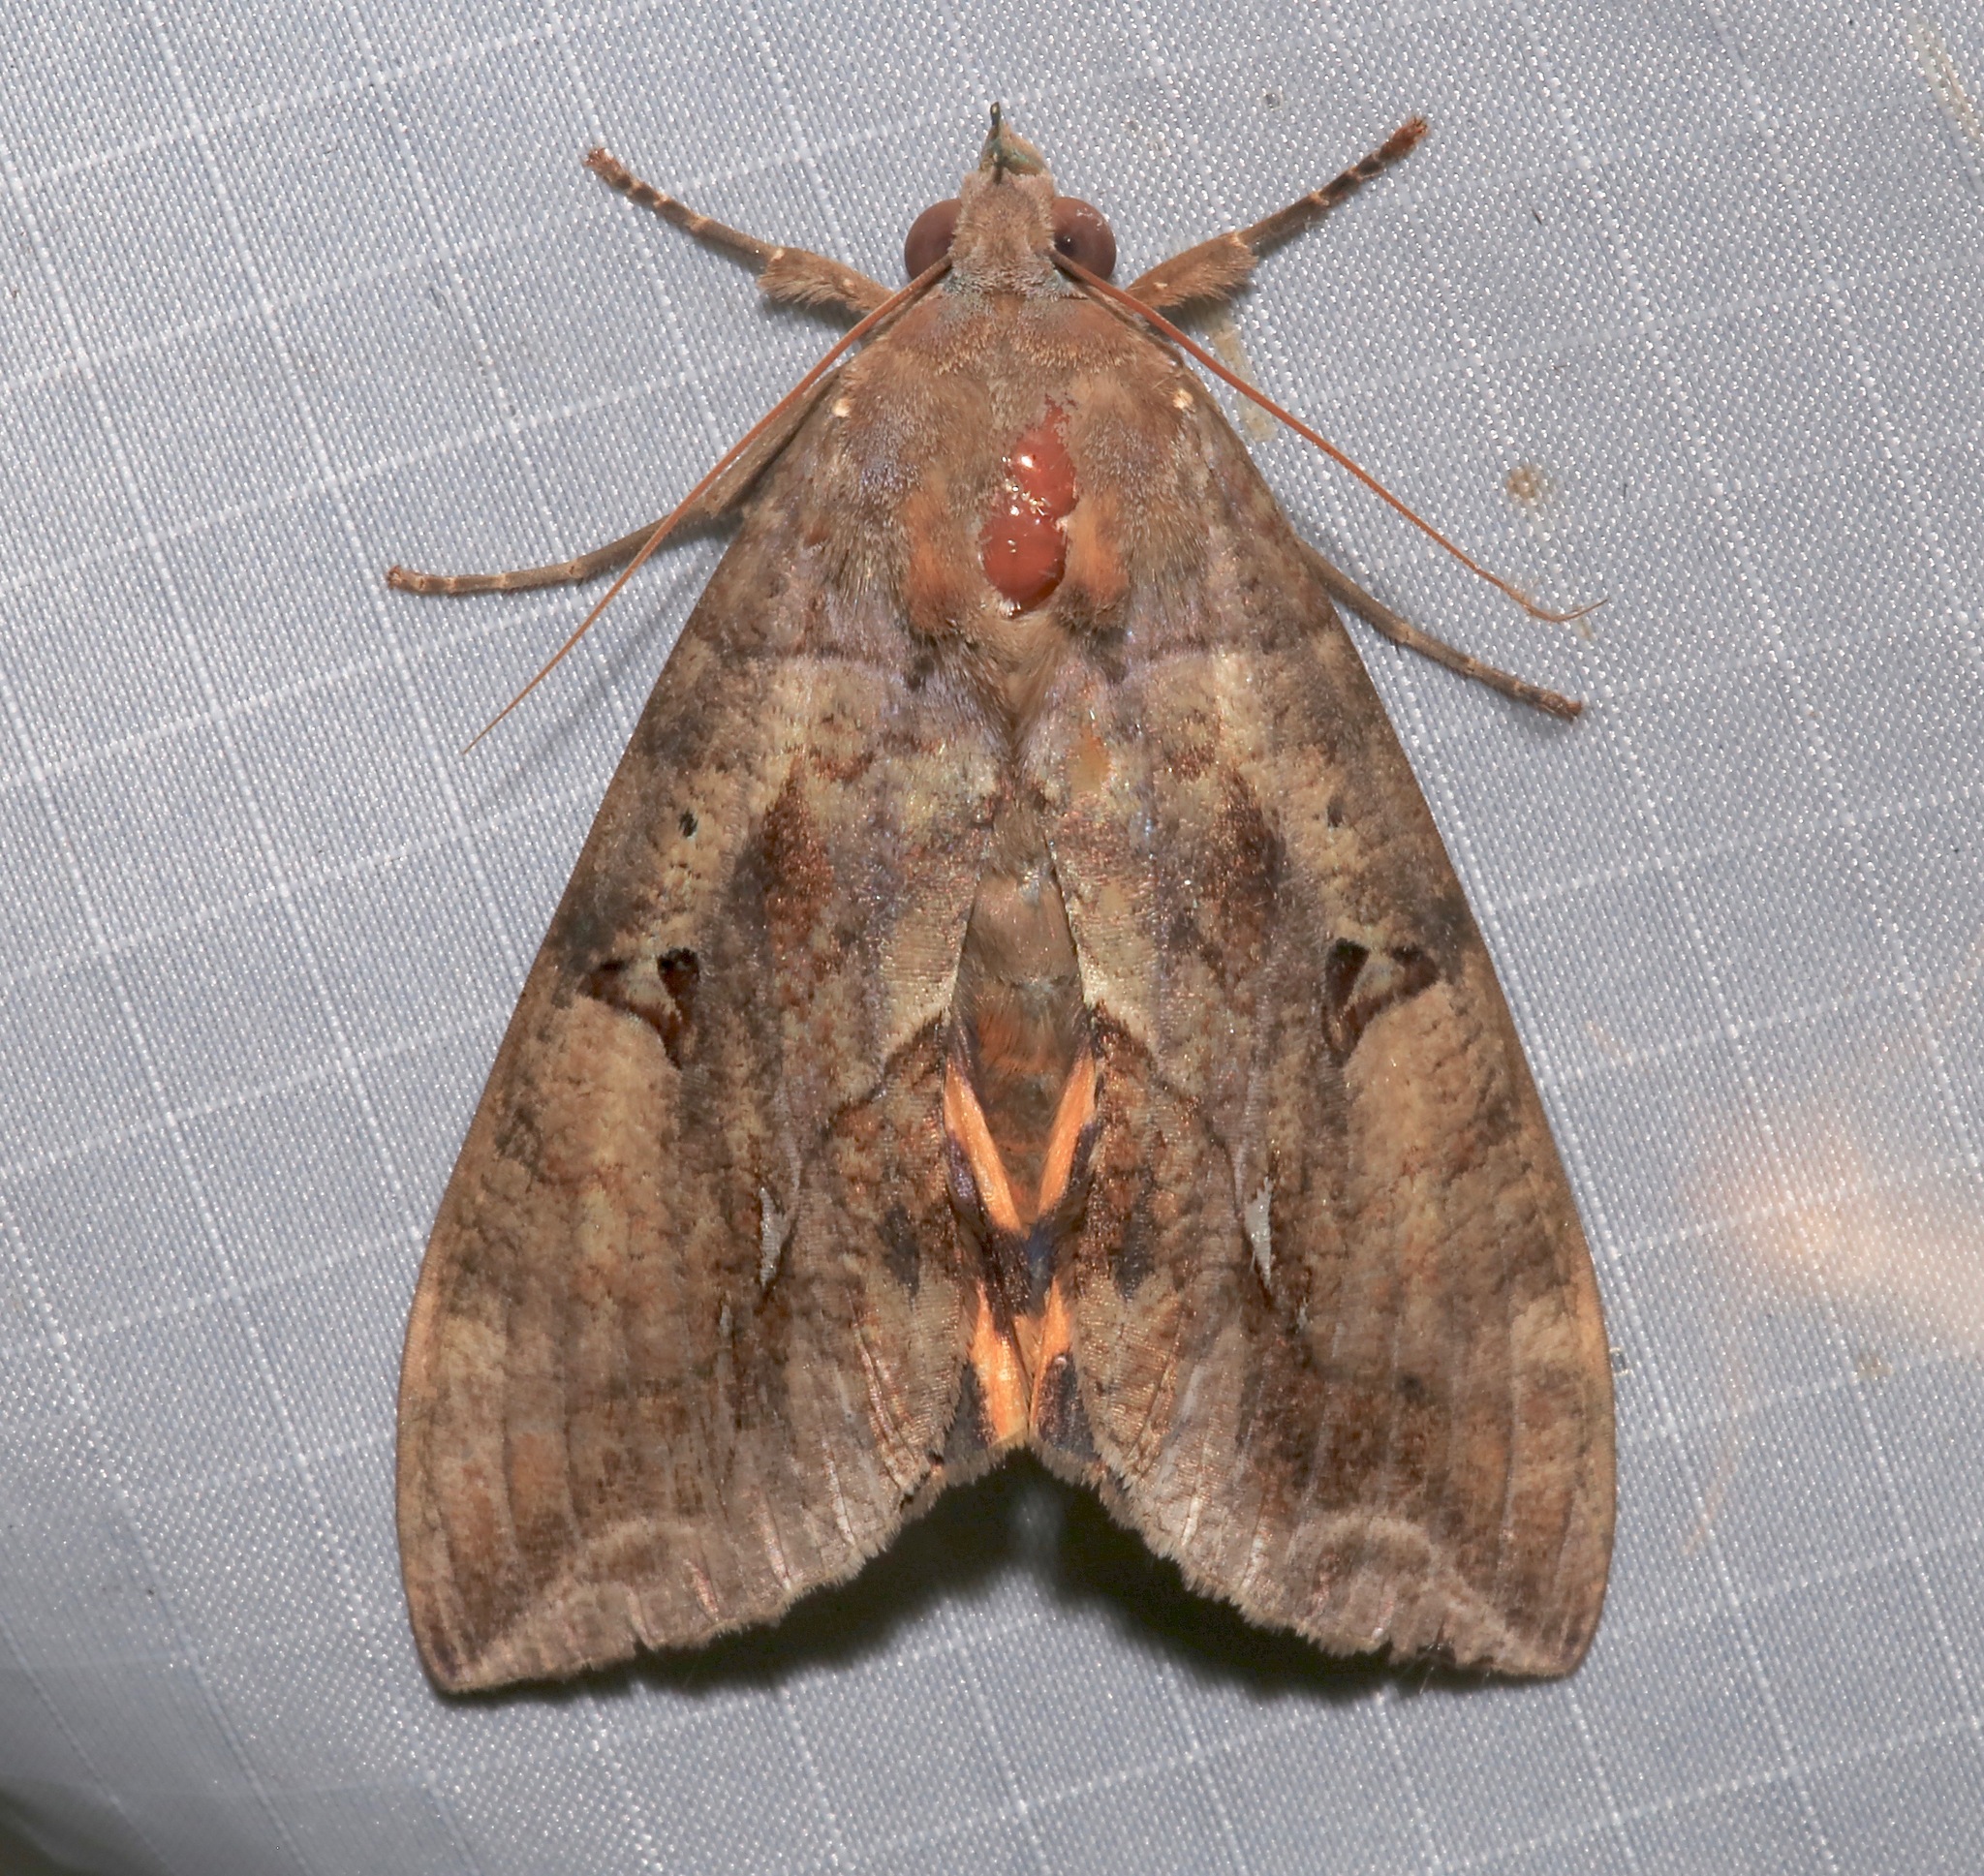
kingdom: Animalia
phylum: Arthropoda
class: Insecta
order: Lepidoptera
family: Erebidae
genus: Eudocima
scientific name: Eudocima procus
